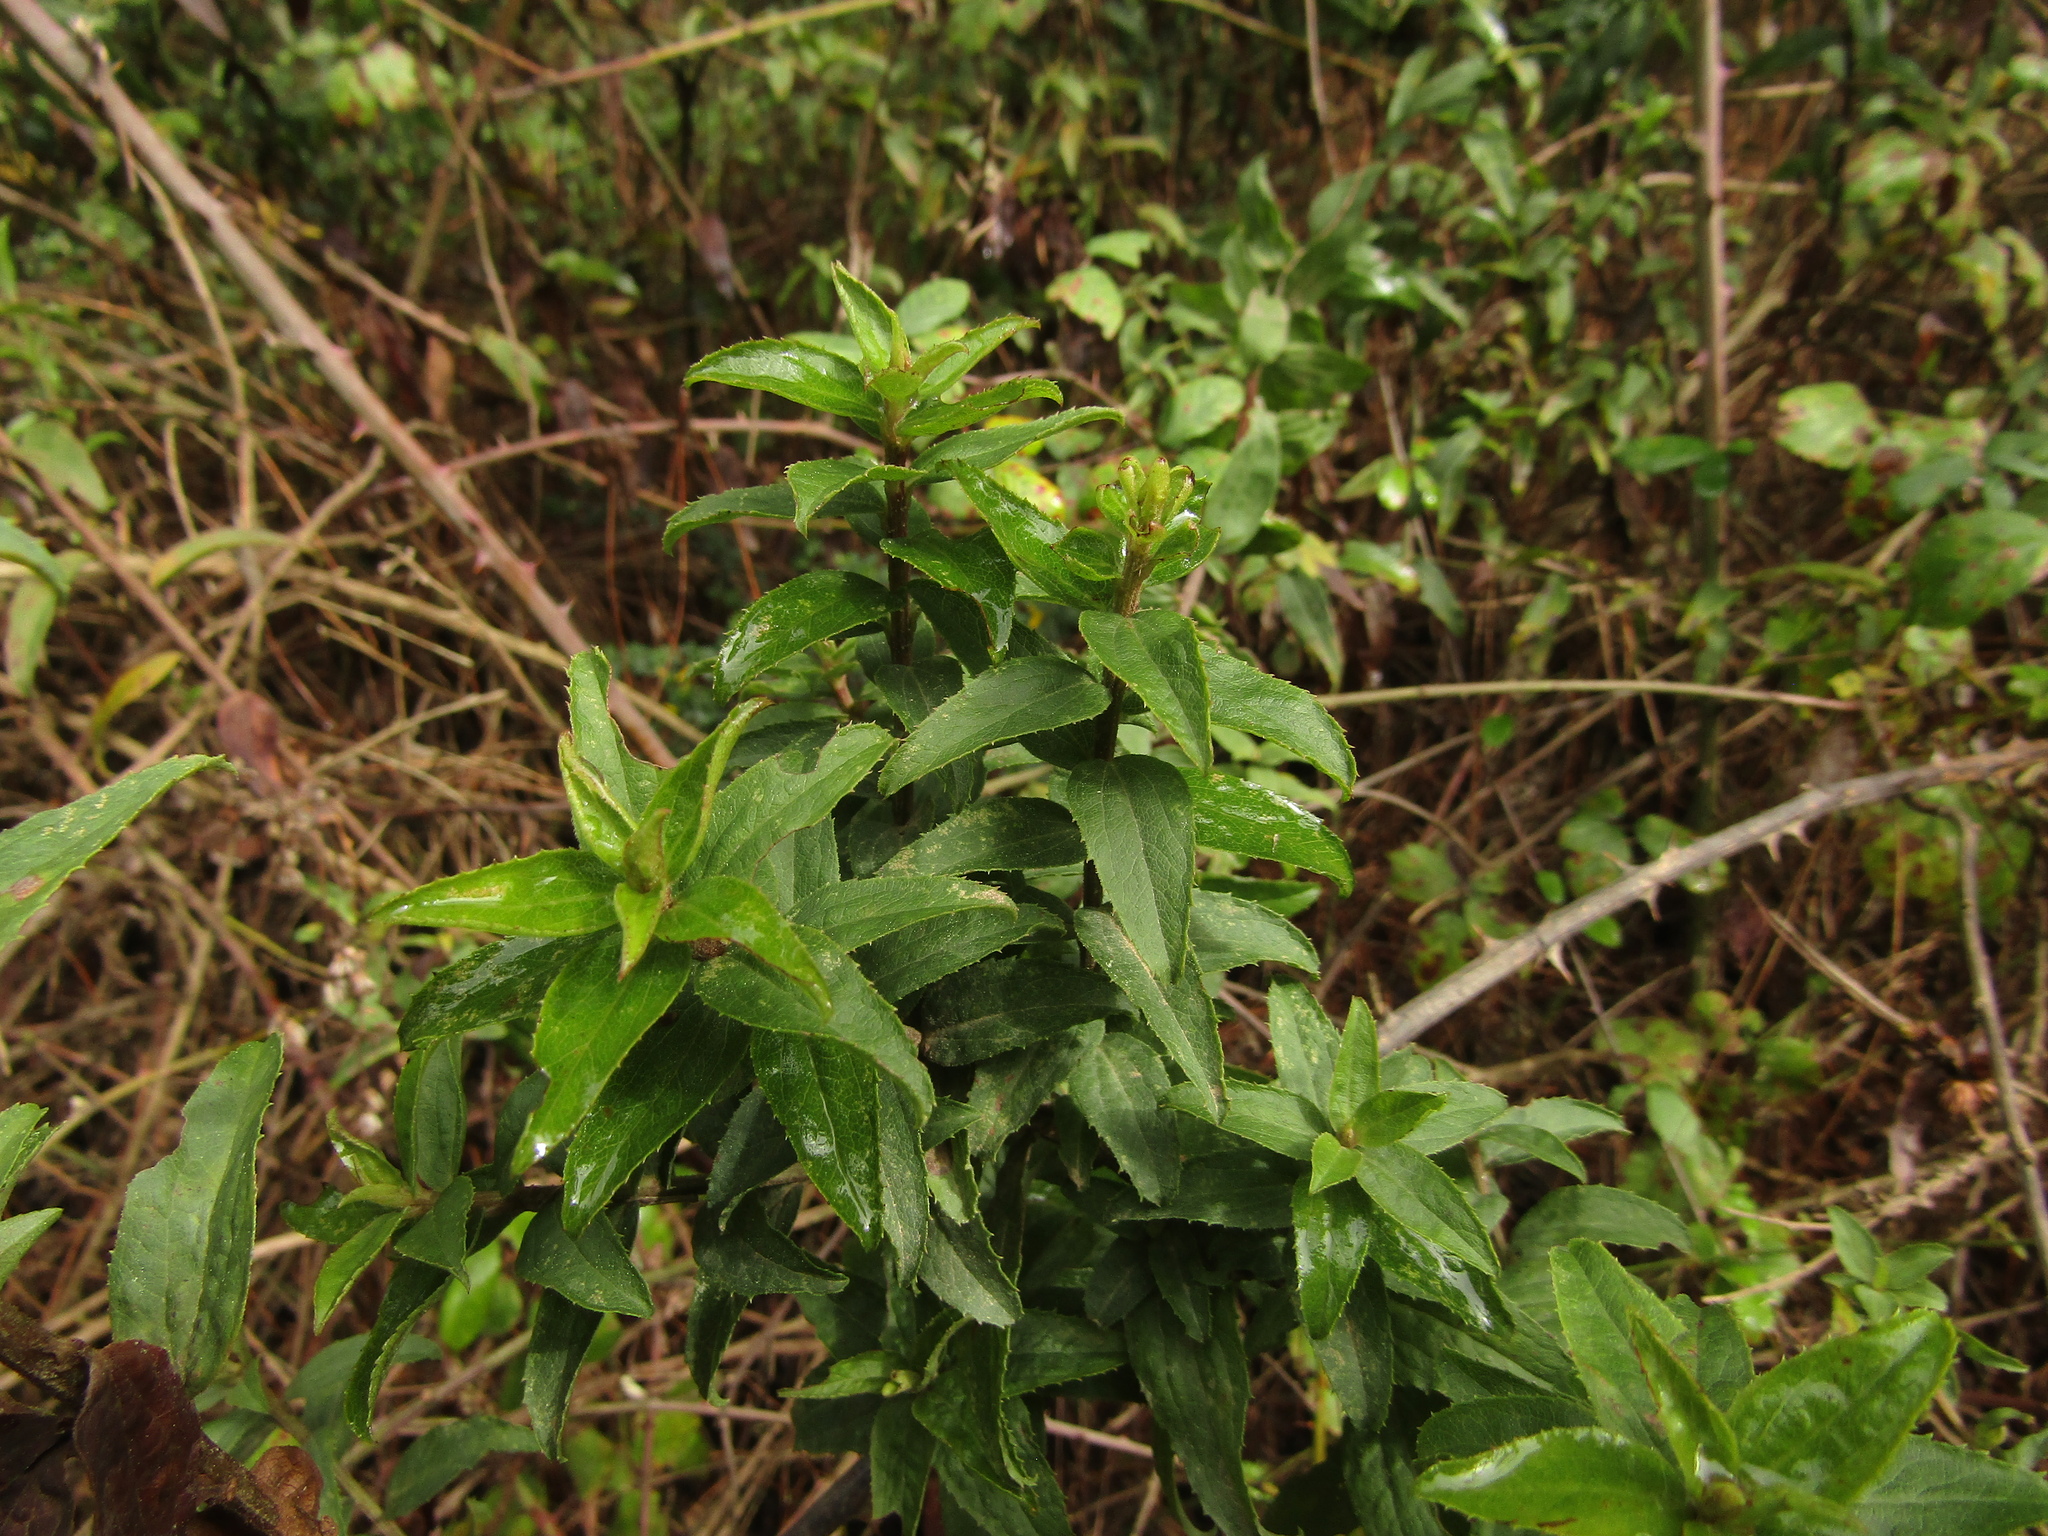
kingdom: Plantae
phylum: Tracheophyta
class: Magnoliopsida
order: Asterales
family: Asteraceae
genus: Baccharis
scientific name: Baccharis racemosa
